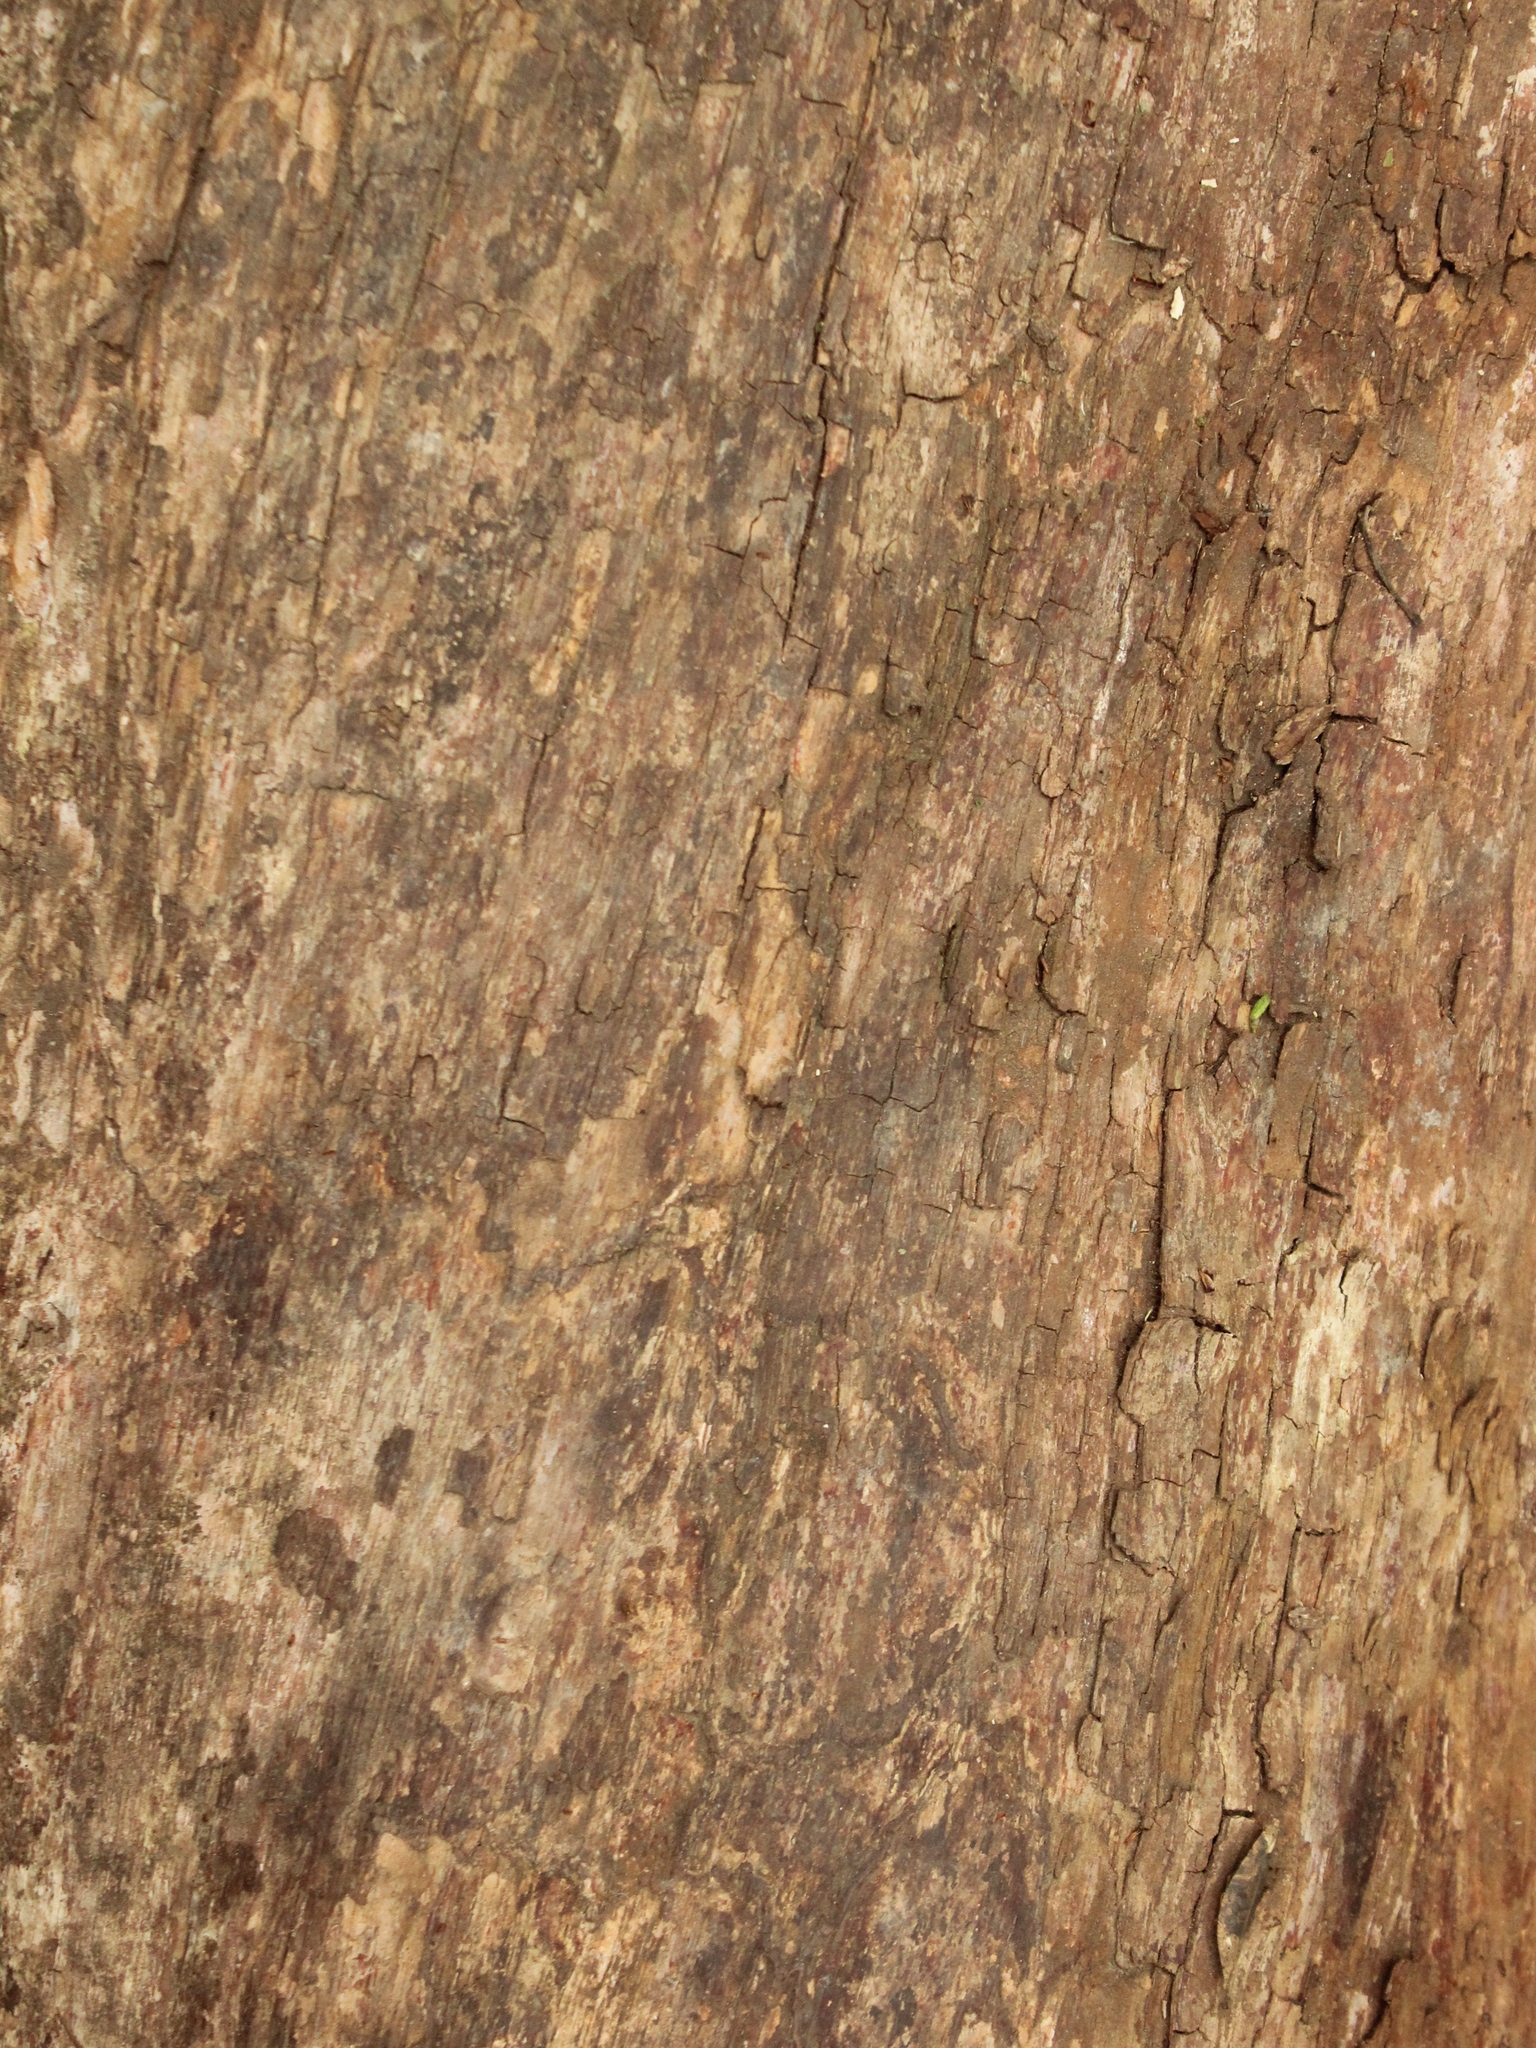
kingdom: Plantae
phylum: Tracheophyta
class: Magnoliopsida
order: Myrtales
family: Myrtaceae
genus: Metrosideros
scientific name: Metrosideros robusta
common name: Northern rata
